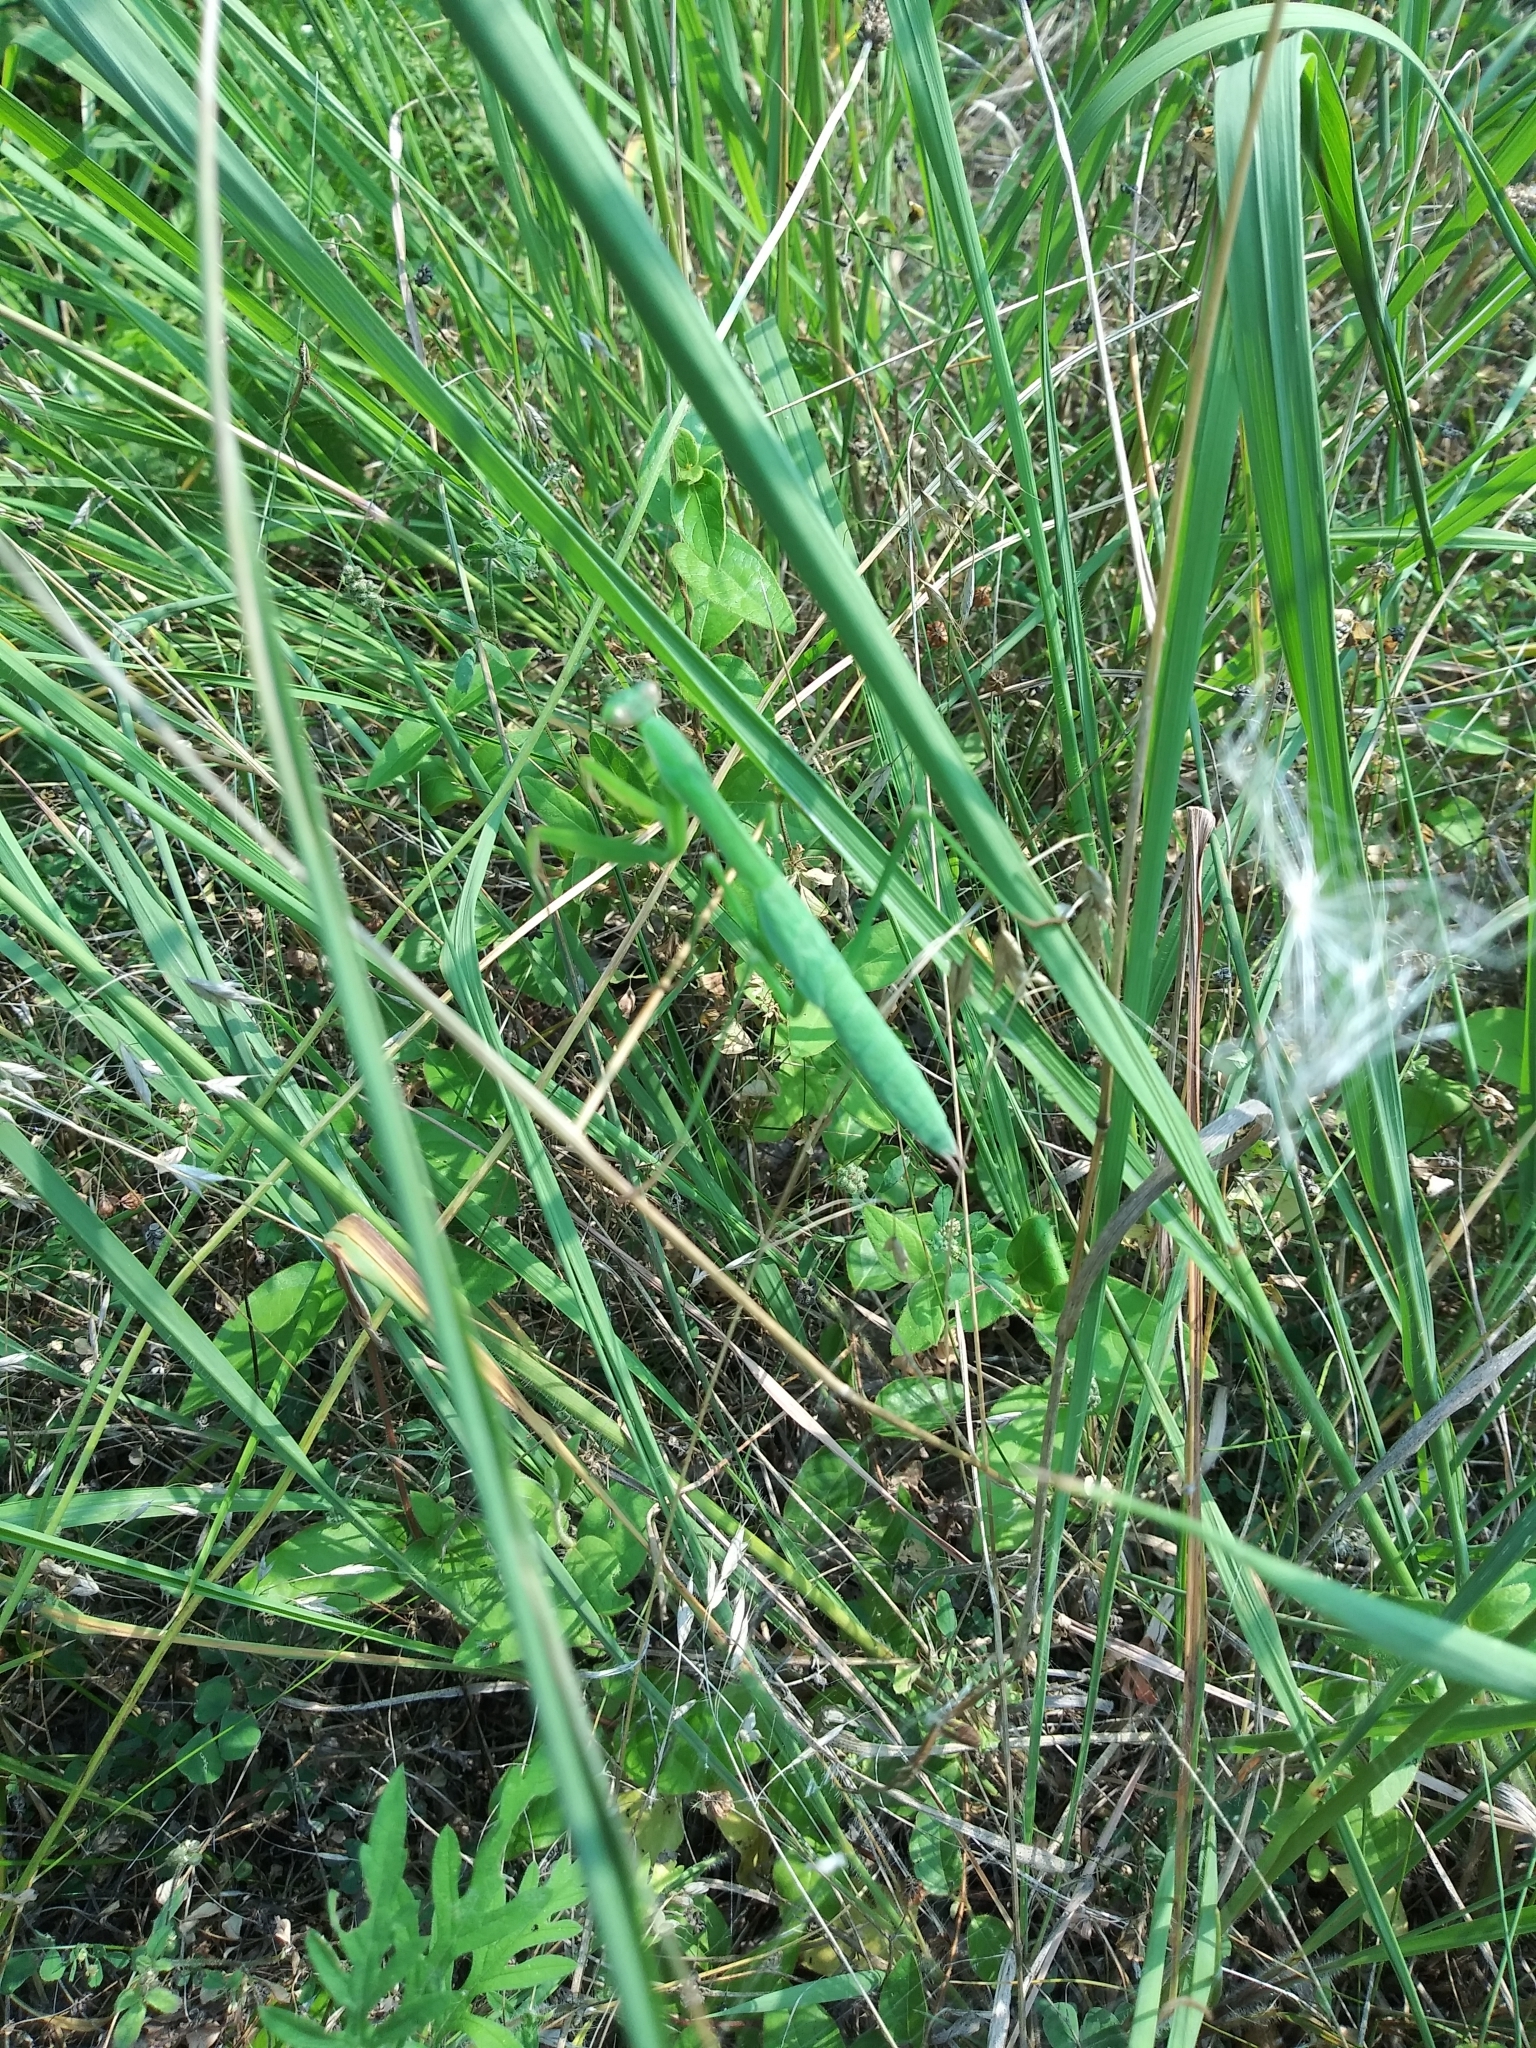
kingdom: Animalia
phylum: Arthropoda
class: Insecta
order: Mantodea
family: Mantidae
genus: Tenodera
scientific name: Tenodera sinensis
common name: Chinese mantis
